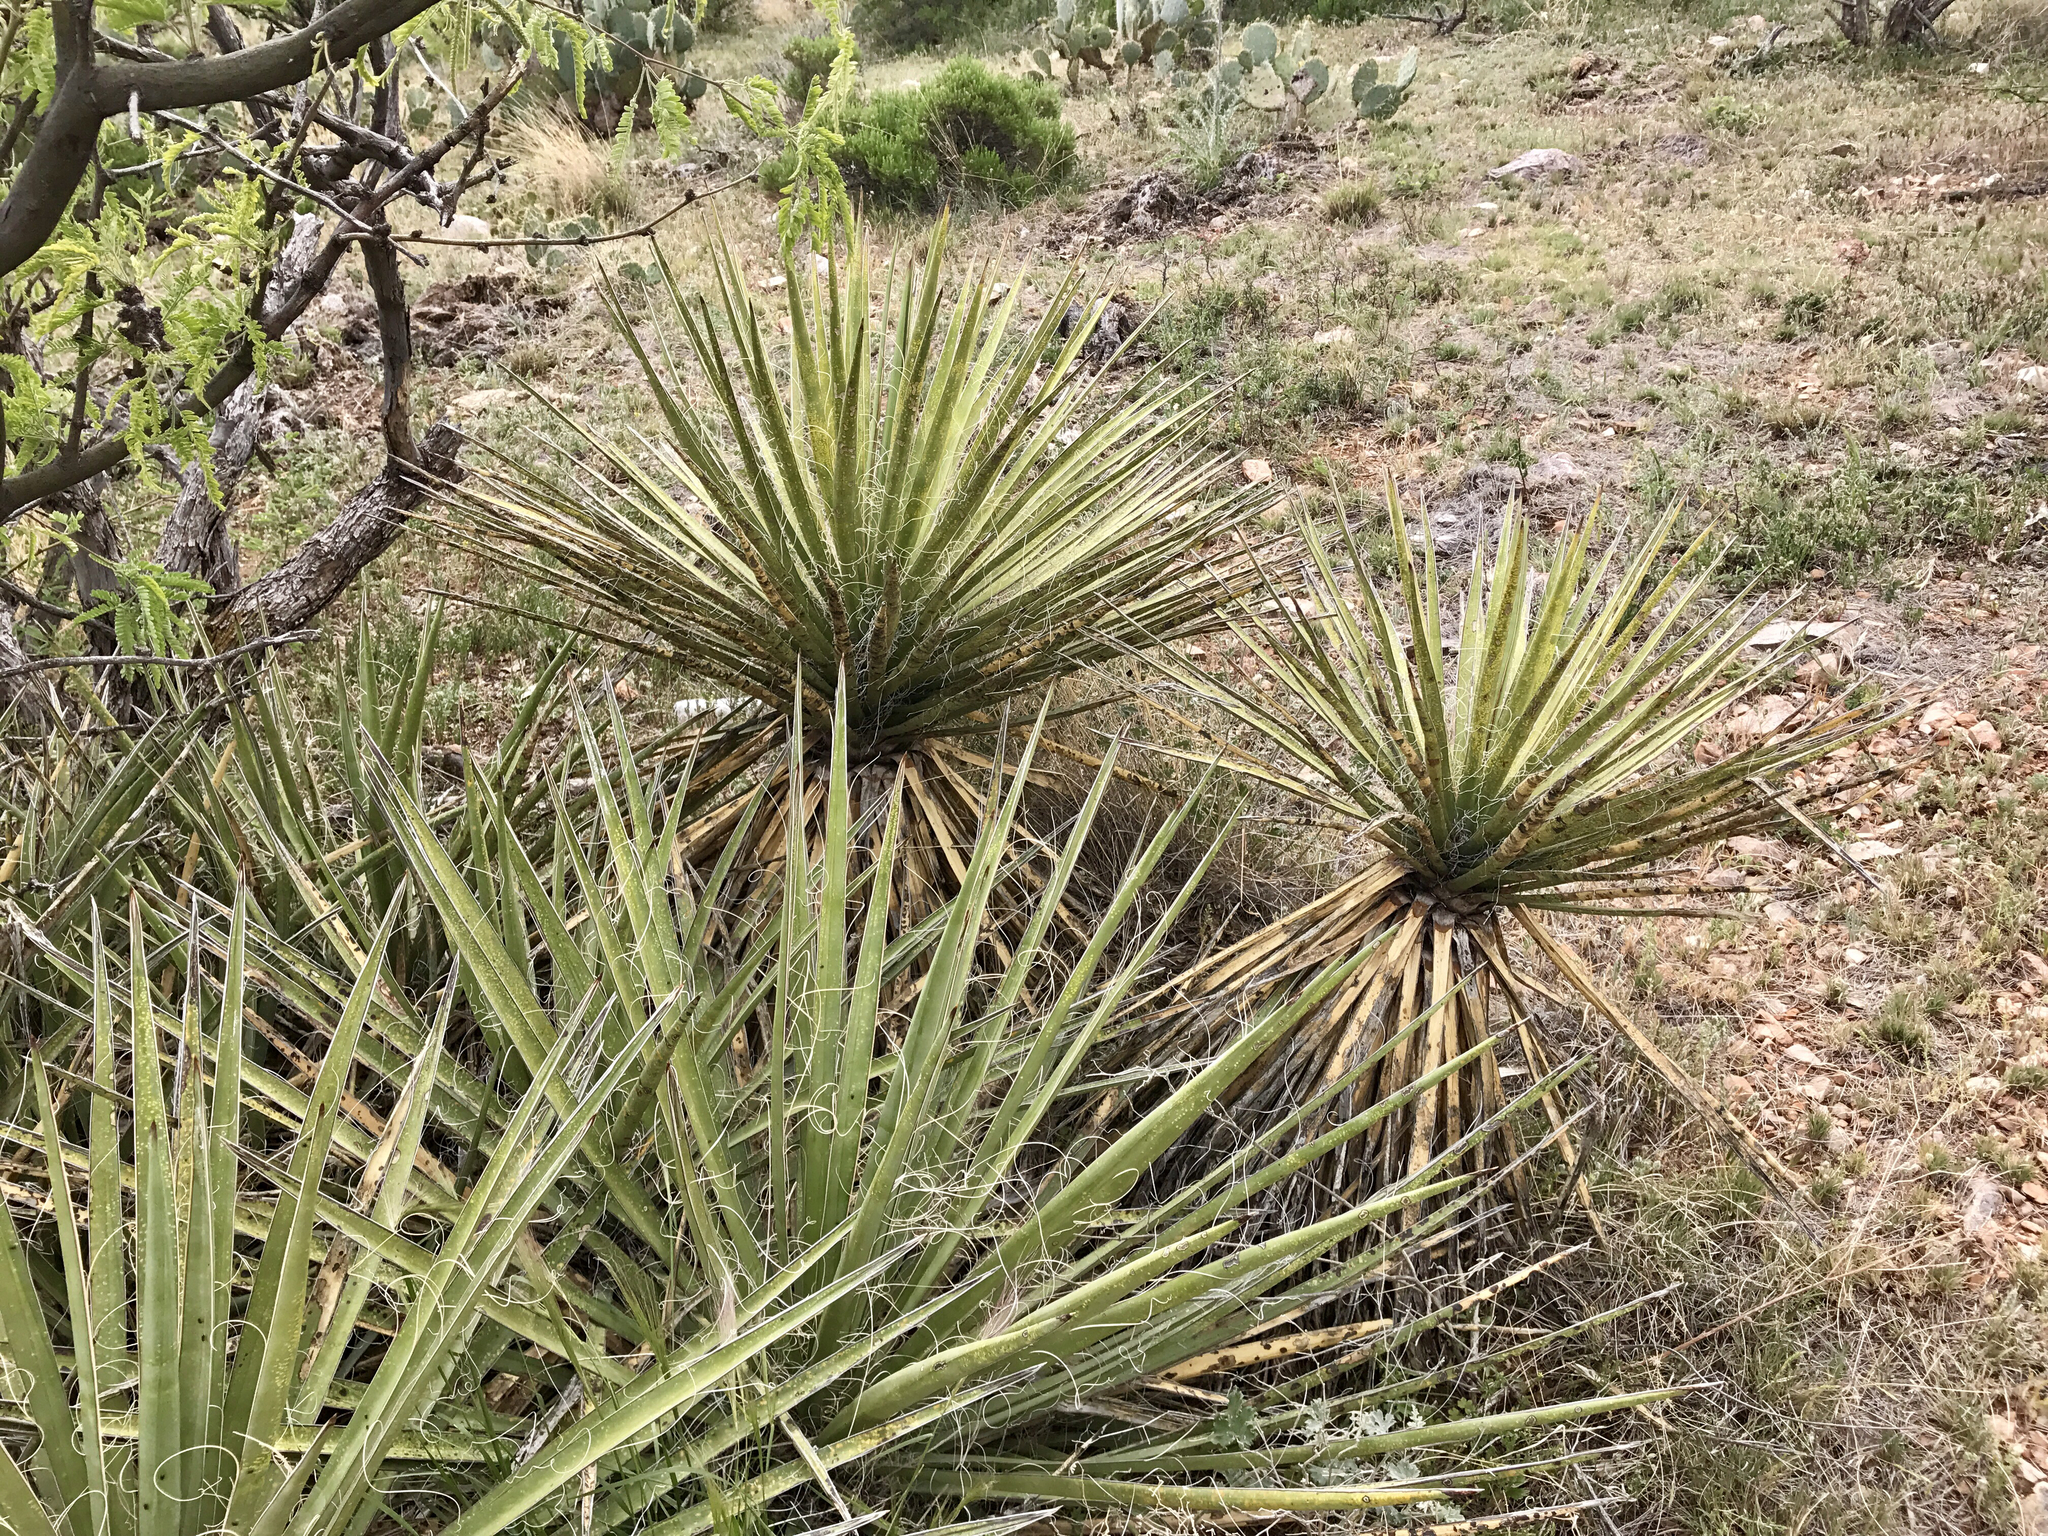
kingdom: Plantae
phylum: Tracheophyta
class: Liliopsida
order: Asparagales
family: Asparagaceae
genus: Yucca
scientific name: Yucca baccata
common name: Banana yucca
